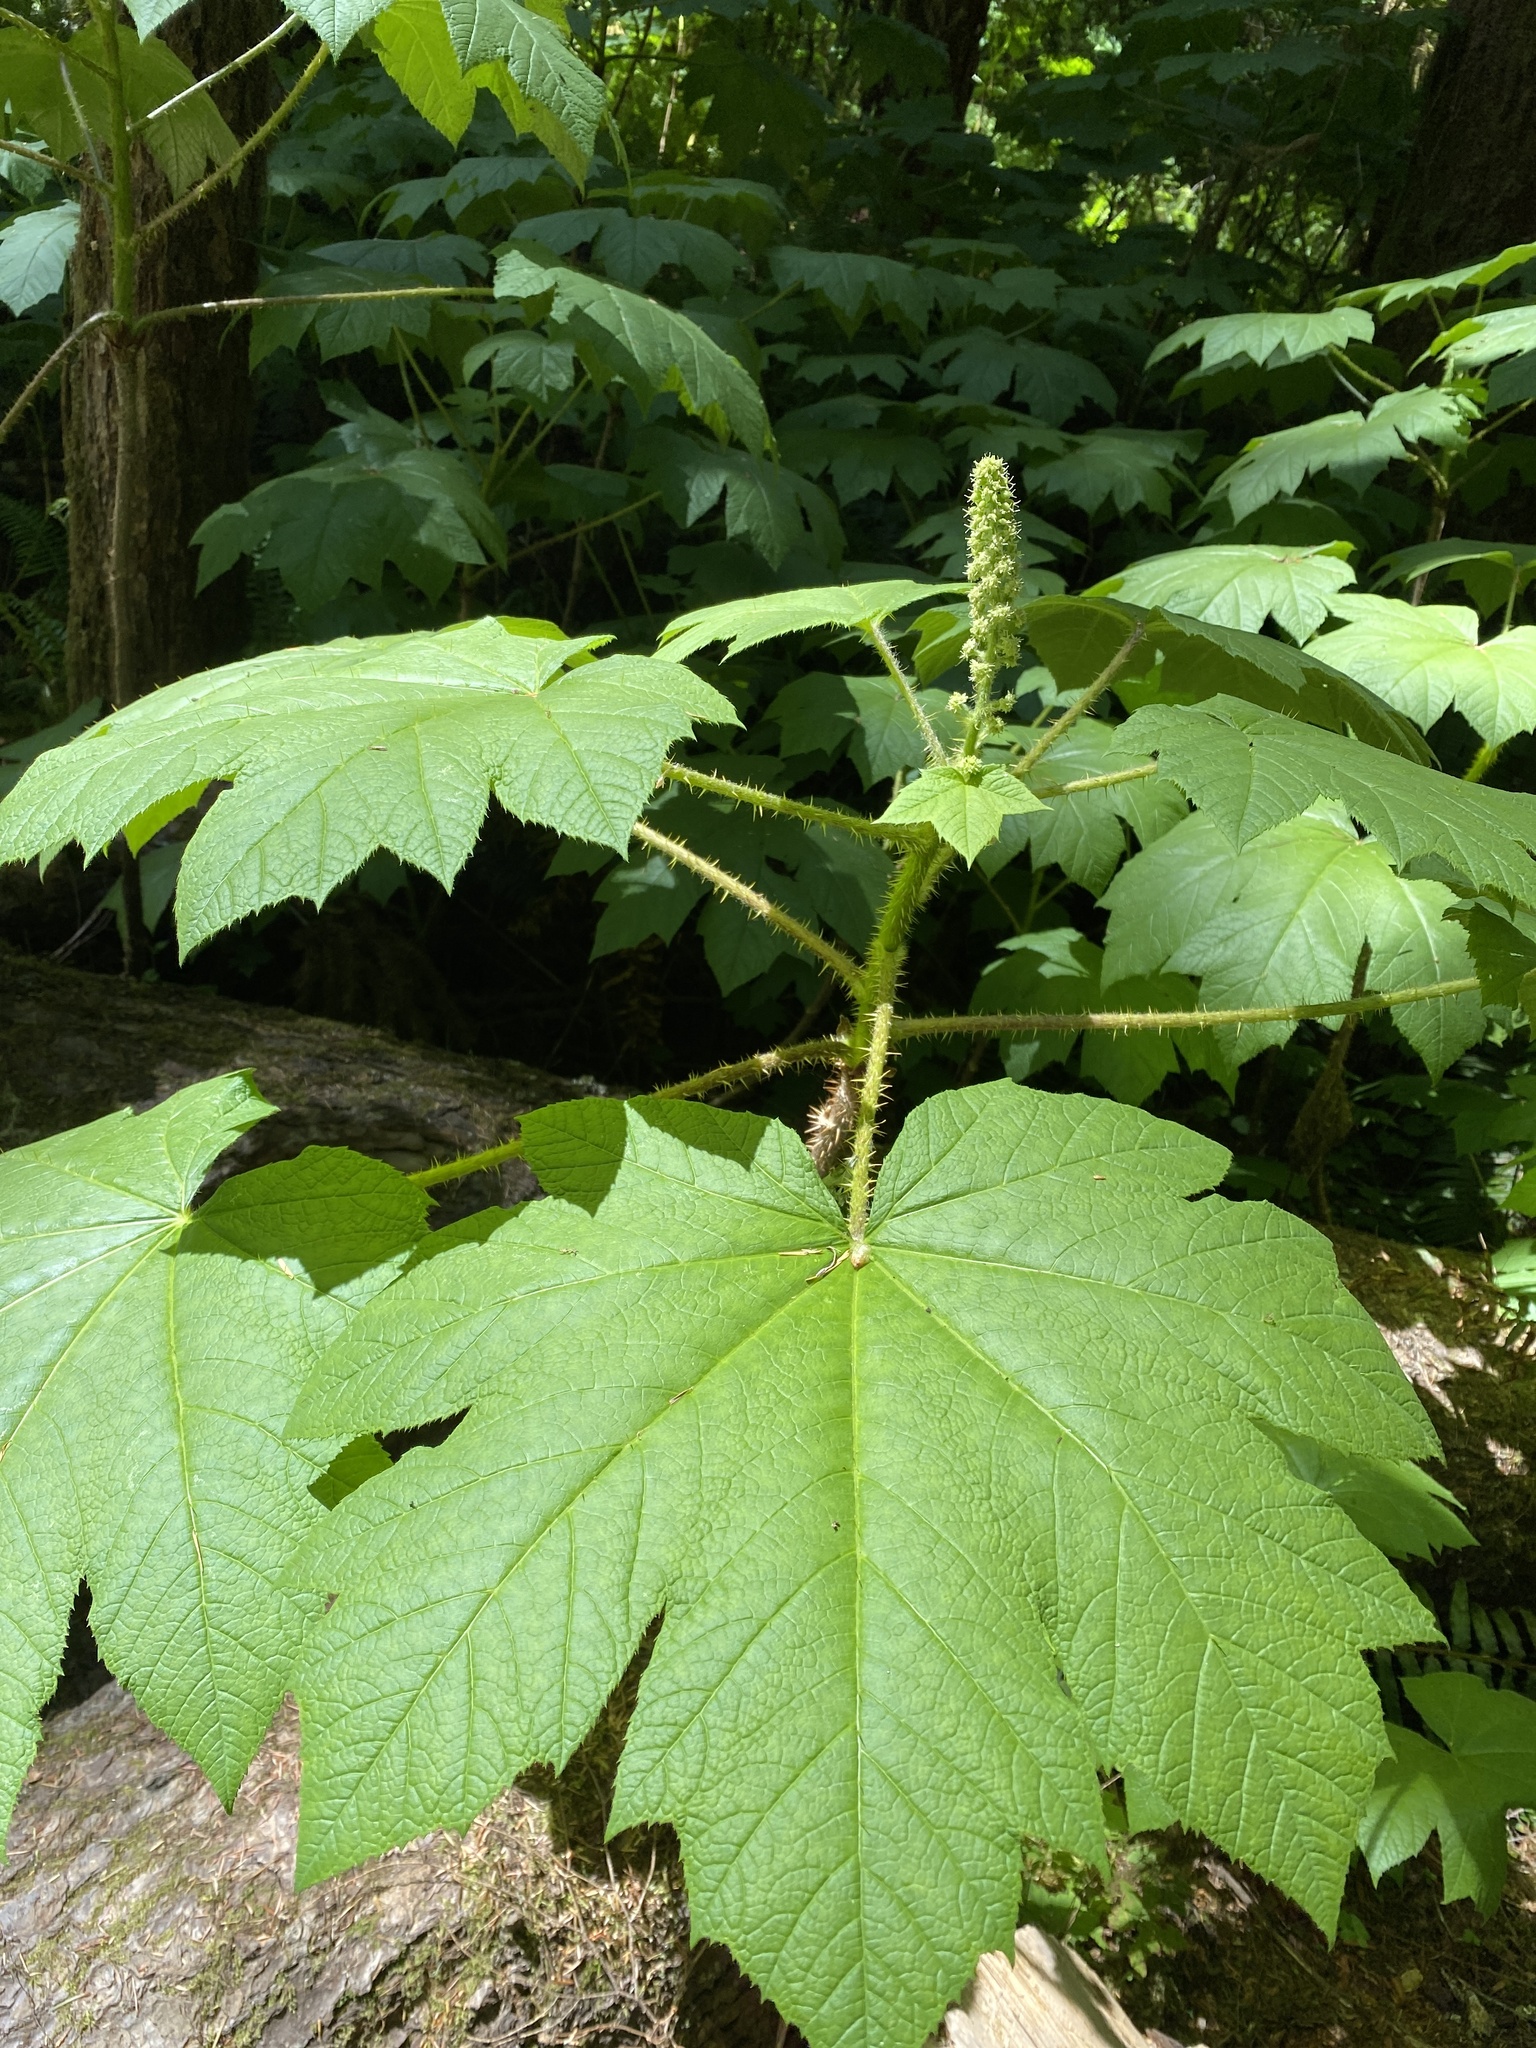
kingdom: Plantae
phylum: Tracheophyta
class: Magnoliopsida
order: Apiales
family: Araliaceae
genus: Oplopanax
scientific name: Oplopanax horridus
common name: Devil's walking-stick
